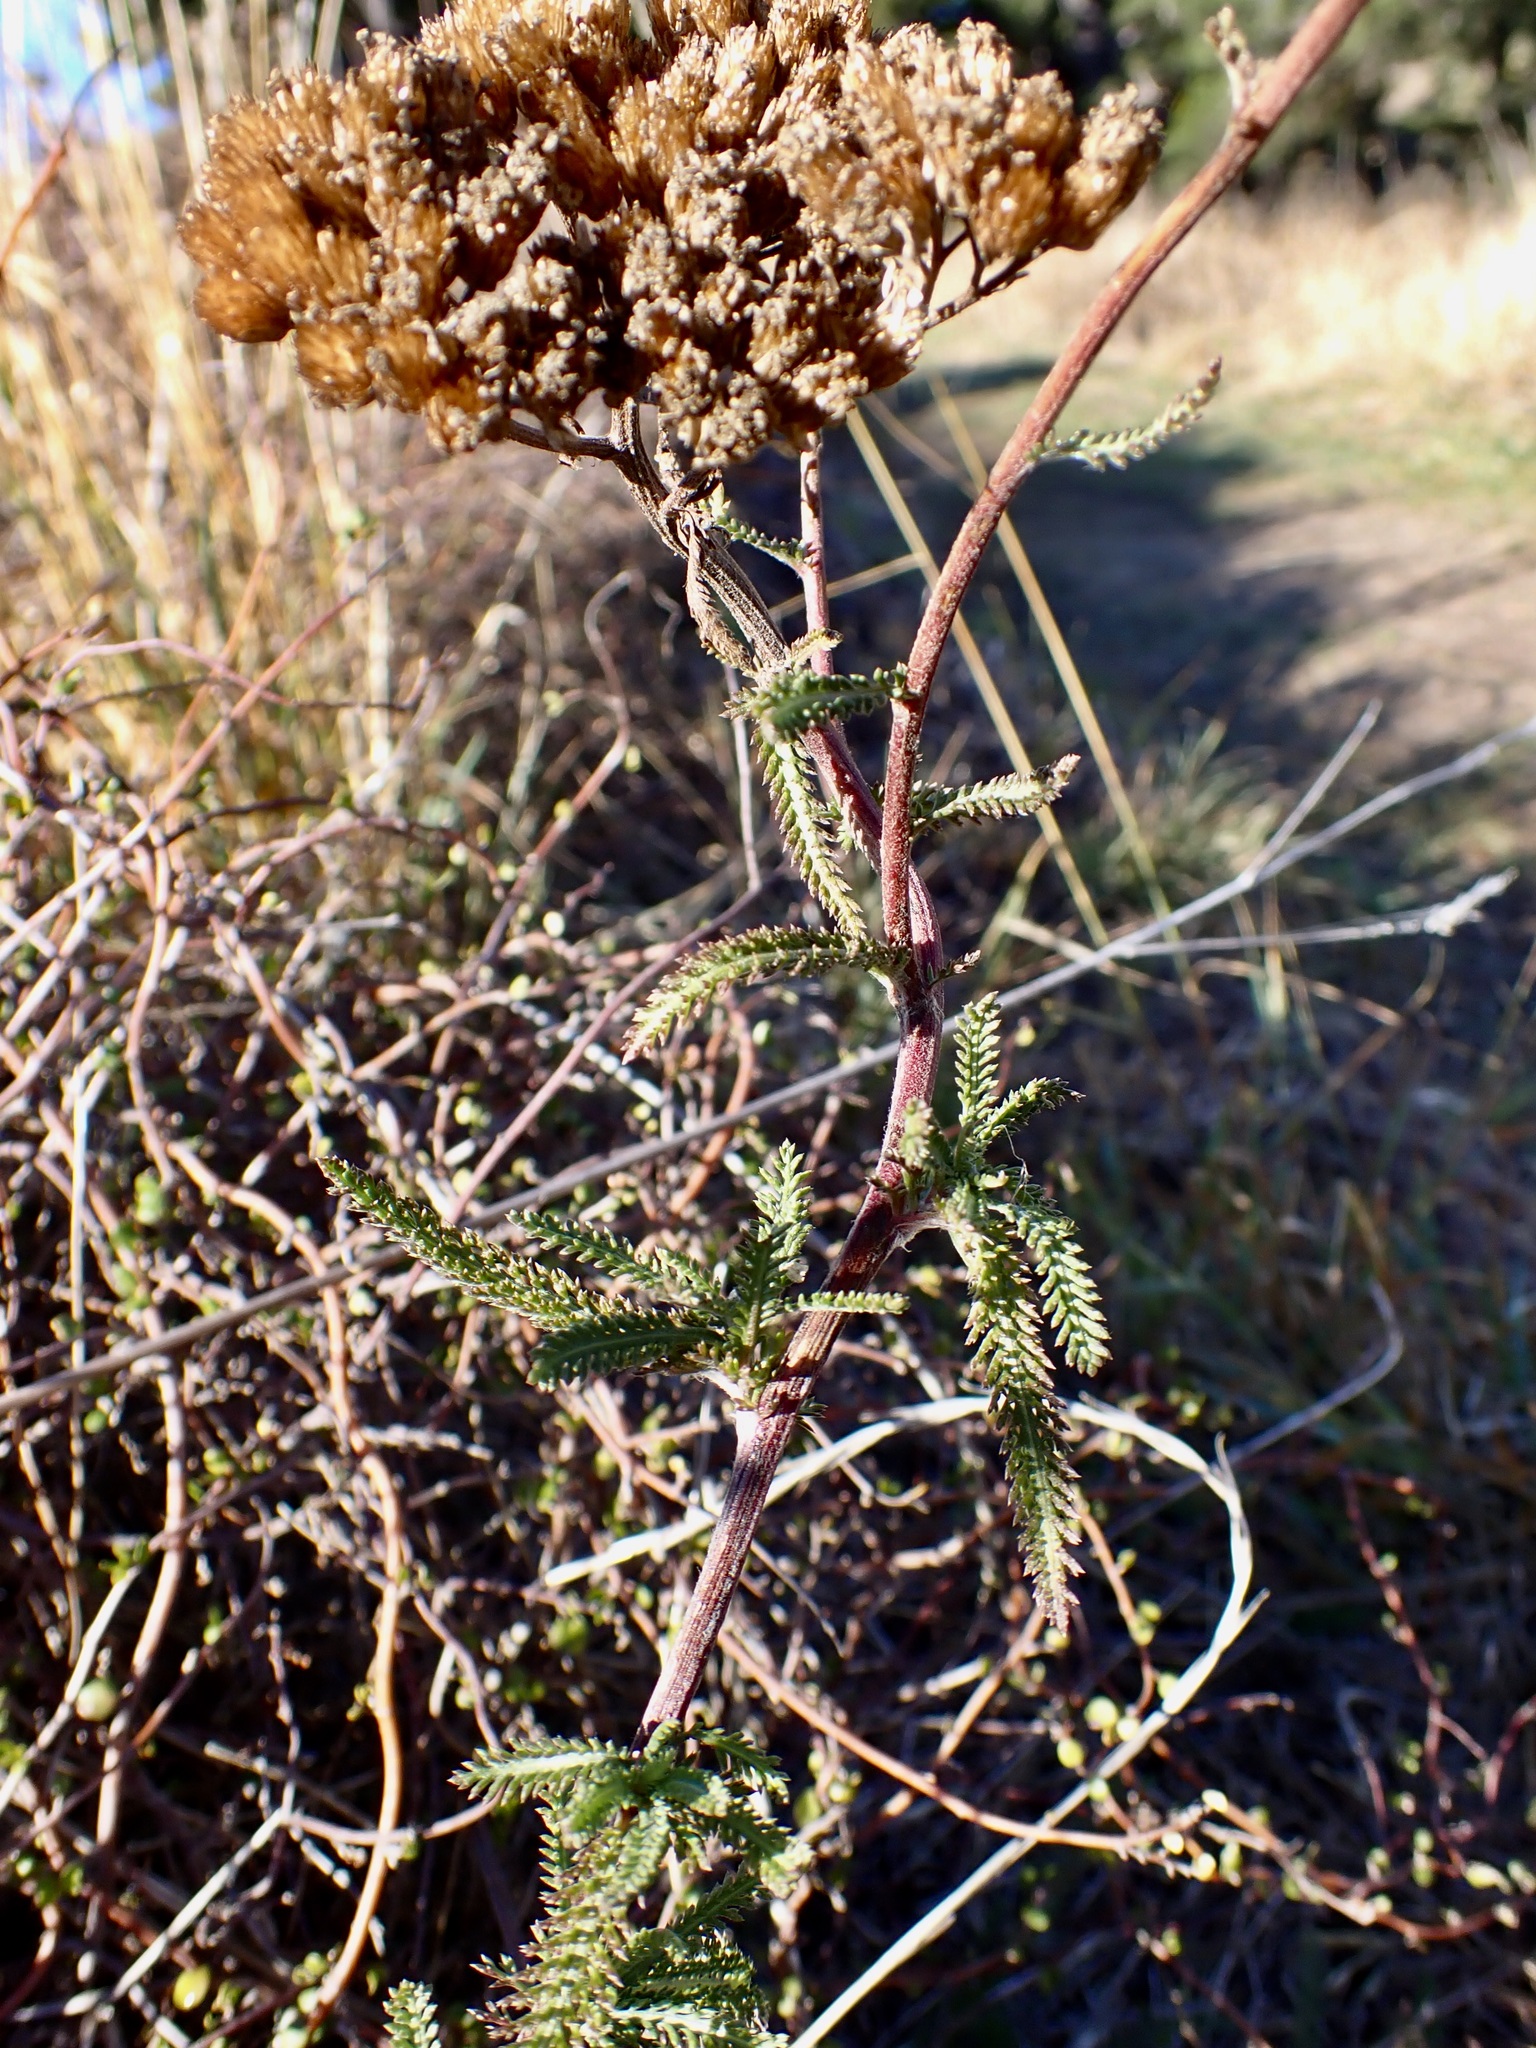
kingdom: Plantae
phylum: Tracheophyta
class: Magnoliopsida
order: Asterales
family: Asteraceae
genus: Achillea
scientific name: Achillea millefolium
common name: Yarrow
